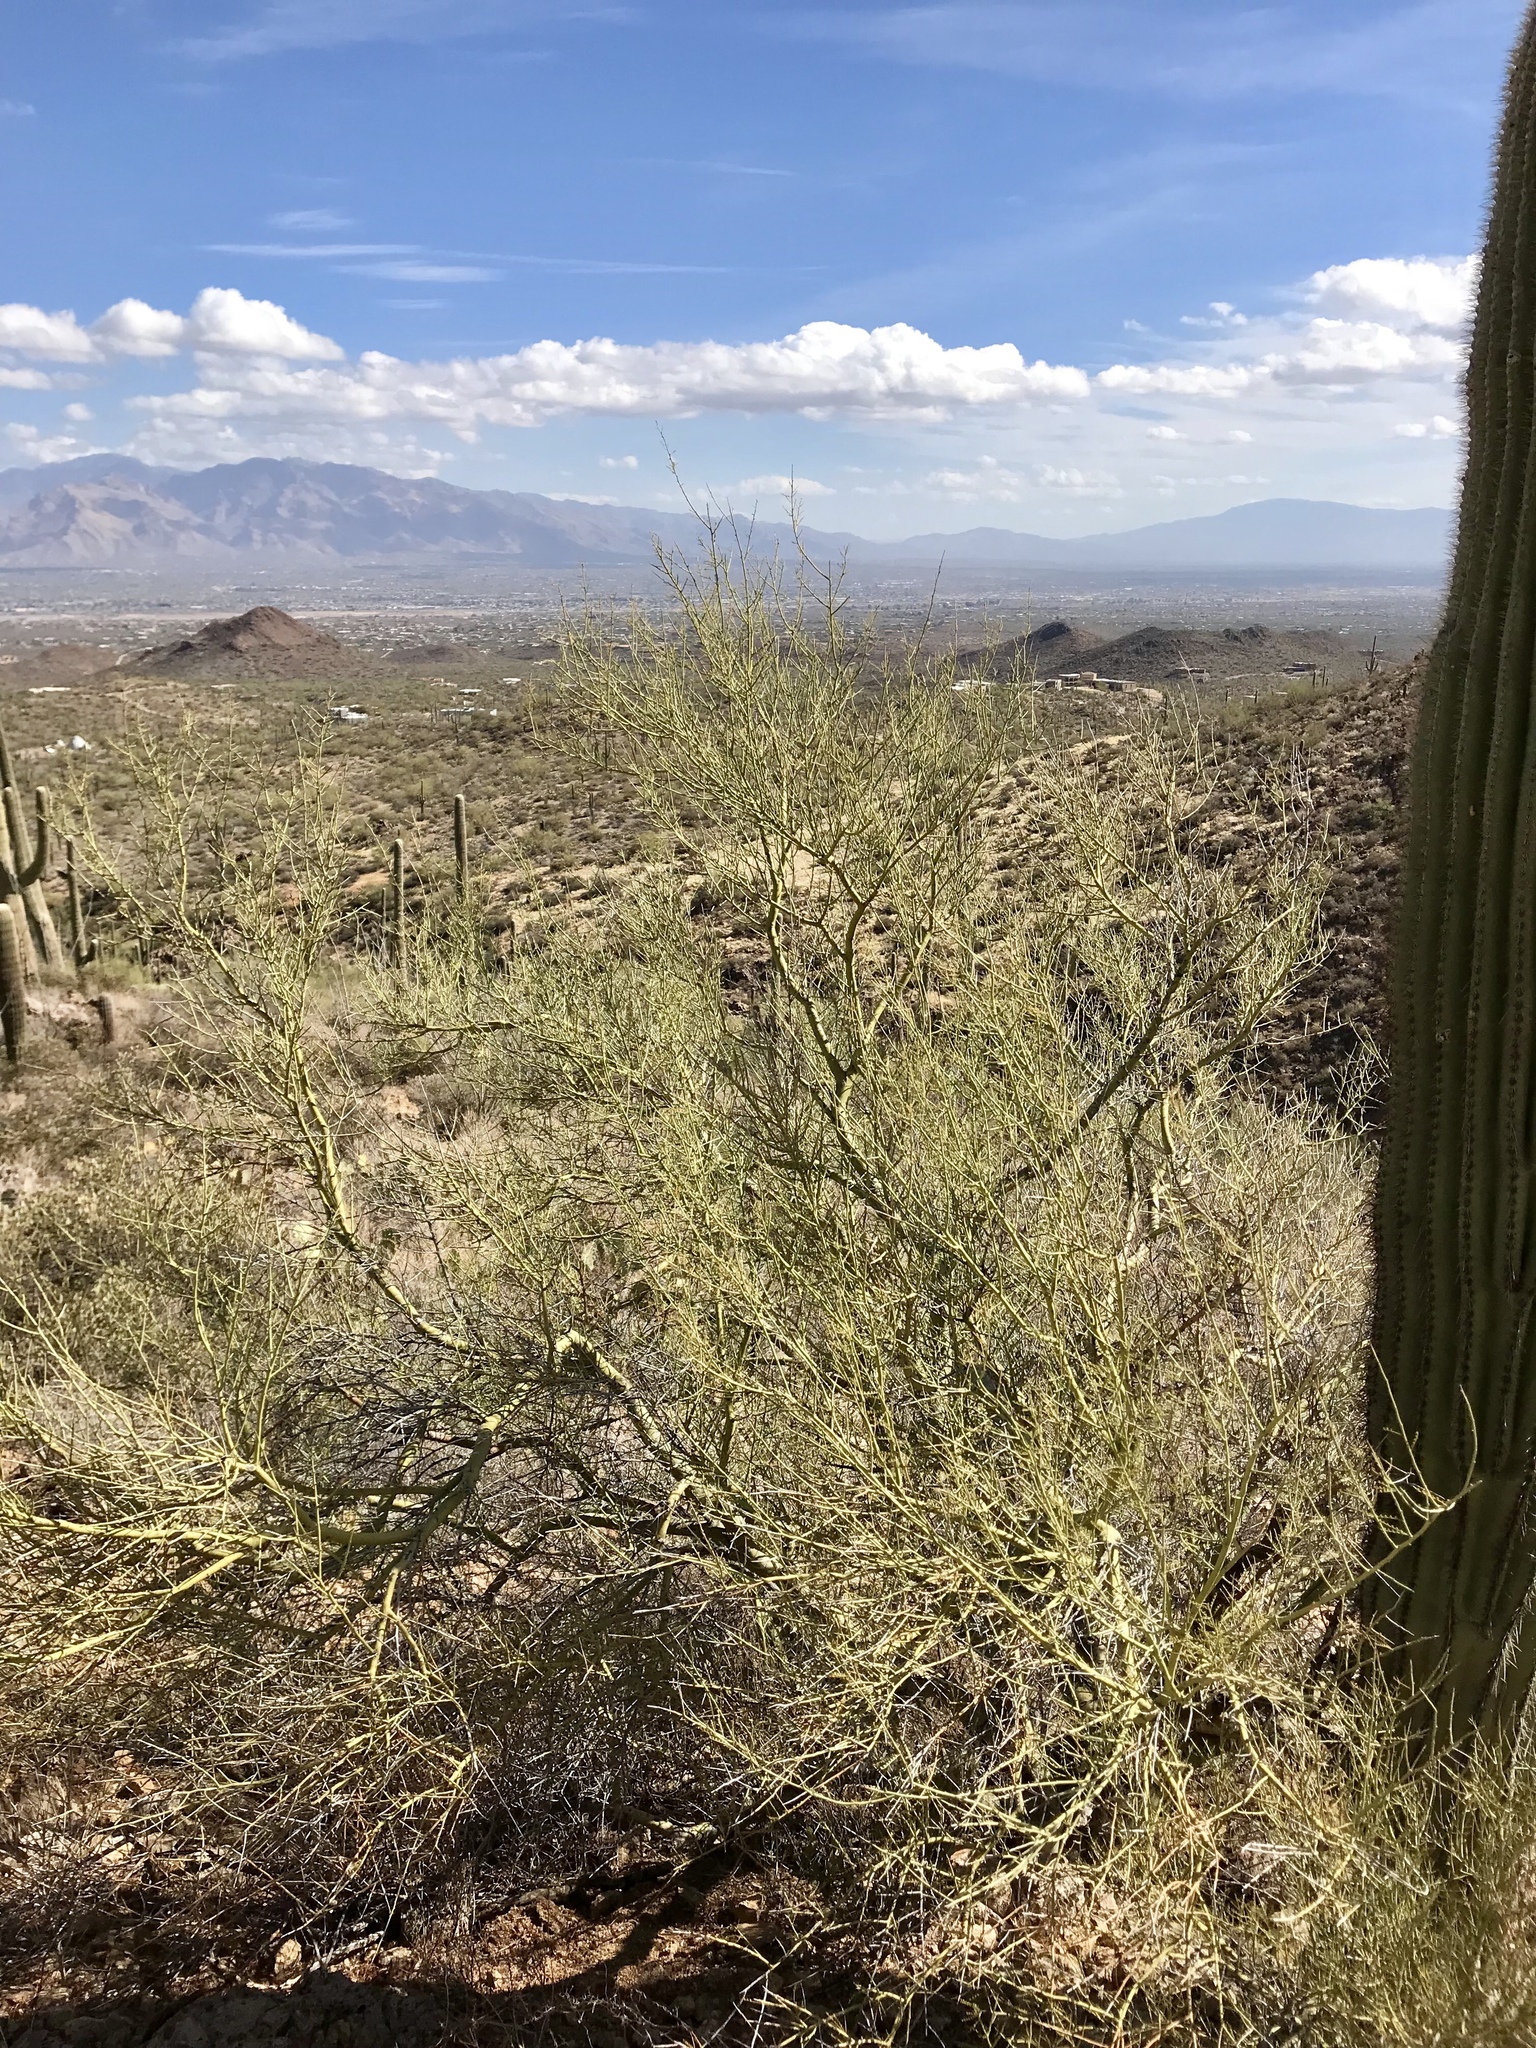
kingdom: Plantae
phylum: Tracheophyta
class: Magnoliopsida
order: Fabales
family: Fabaceae
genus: Parkinsonia
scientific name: Parkinsonia microphylla
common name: Yellow paloverde
